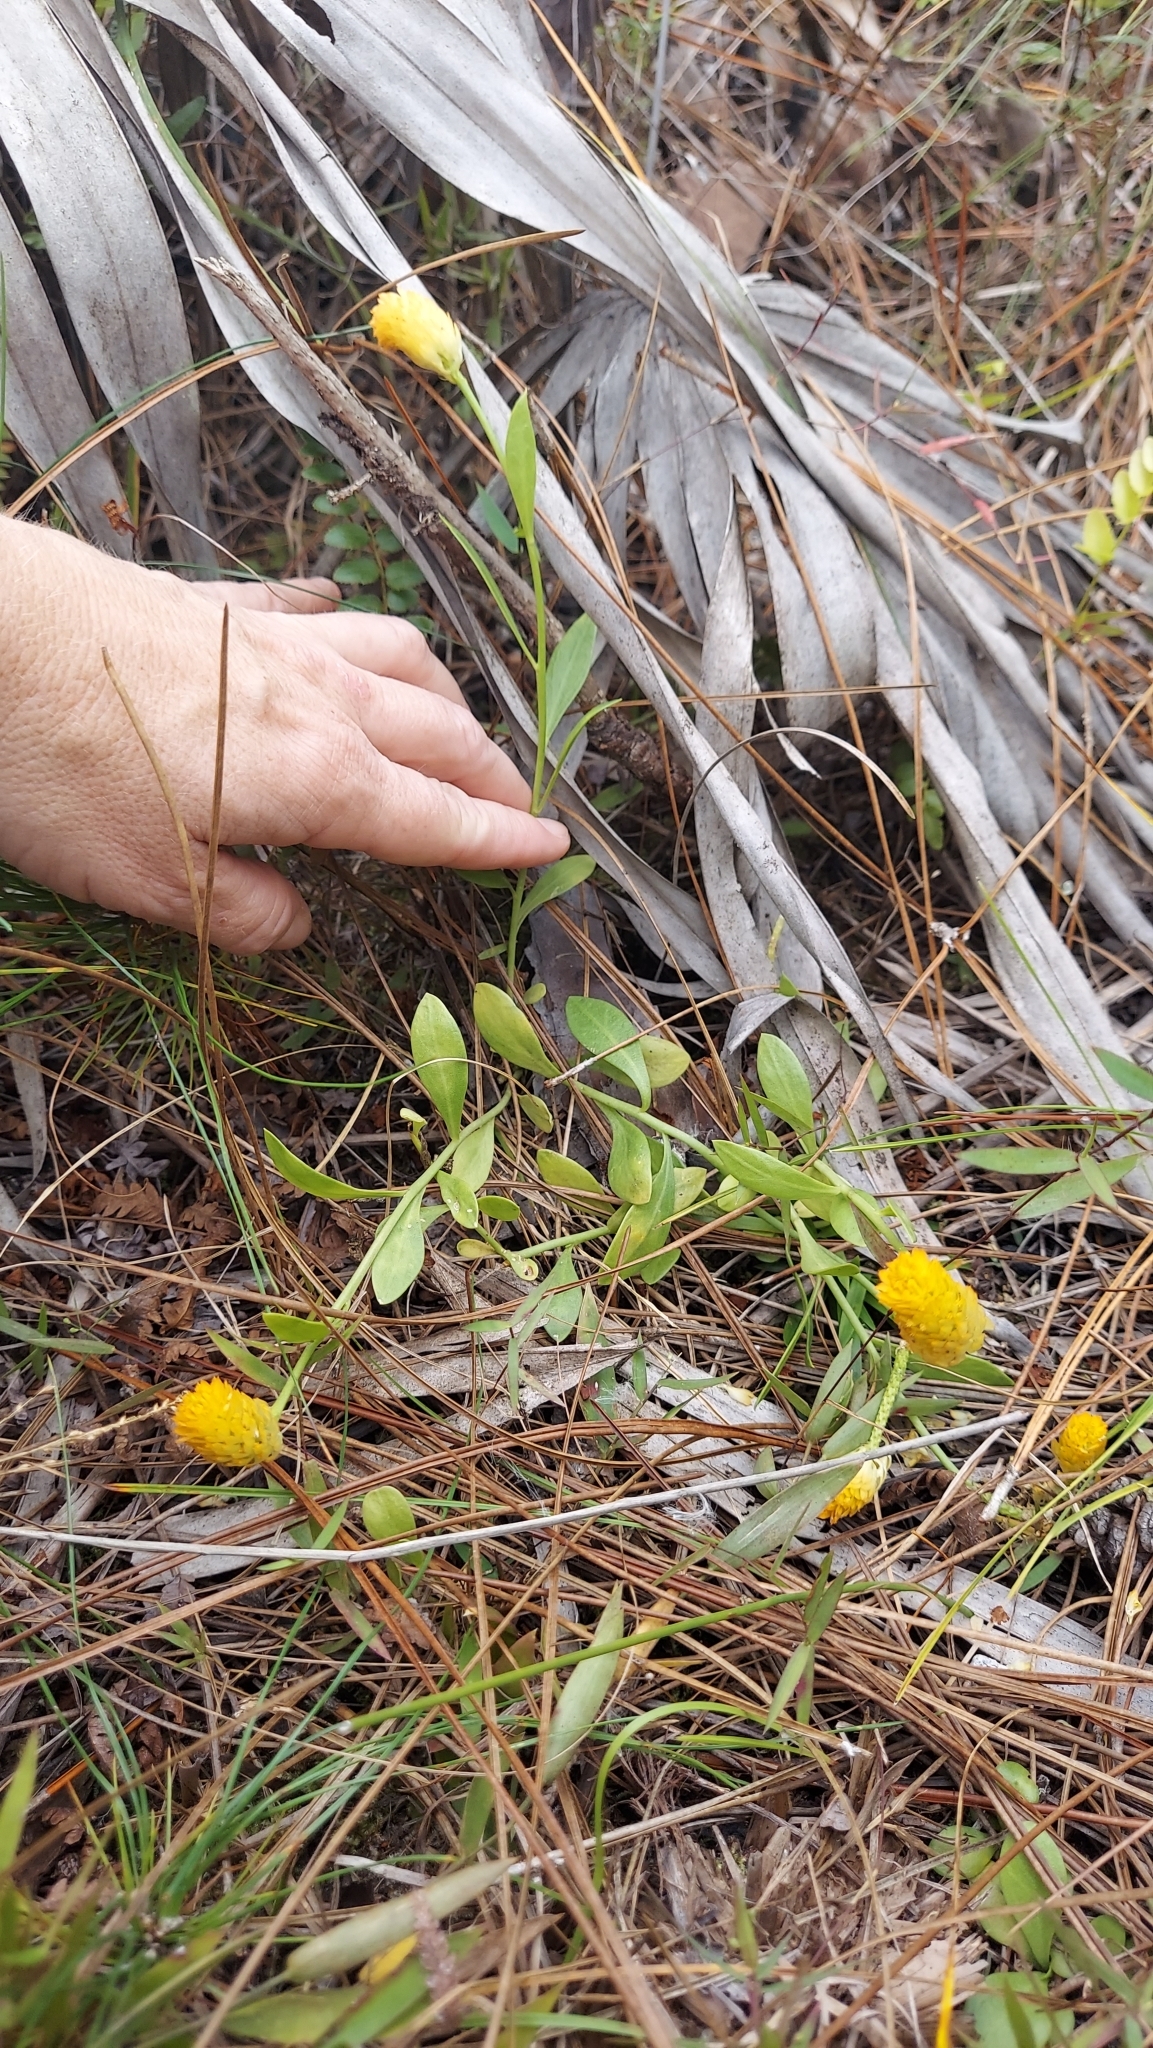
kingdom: Plantae
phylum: Tracheophyta
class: Magnoliopsida
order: Fabales
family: Polygalaceae
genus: Polygala
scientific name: Polygala lutea
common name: Orange milkwort
